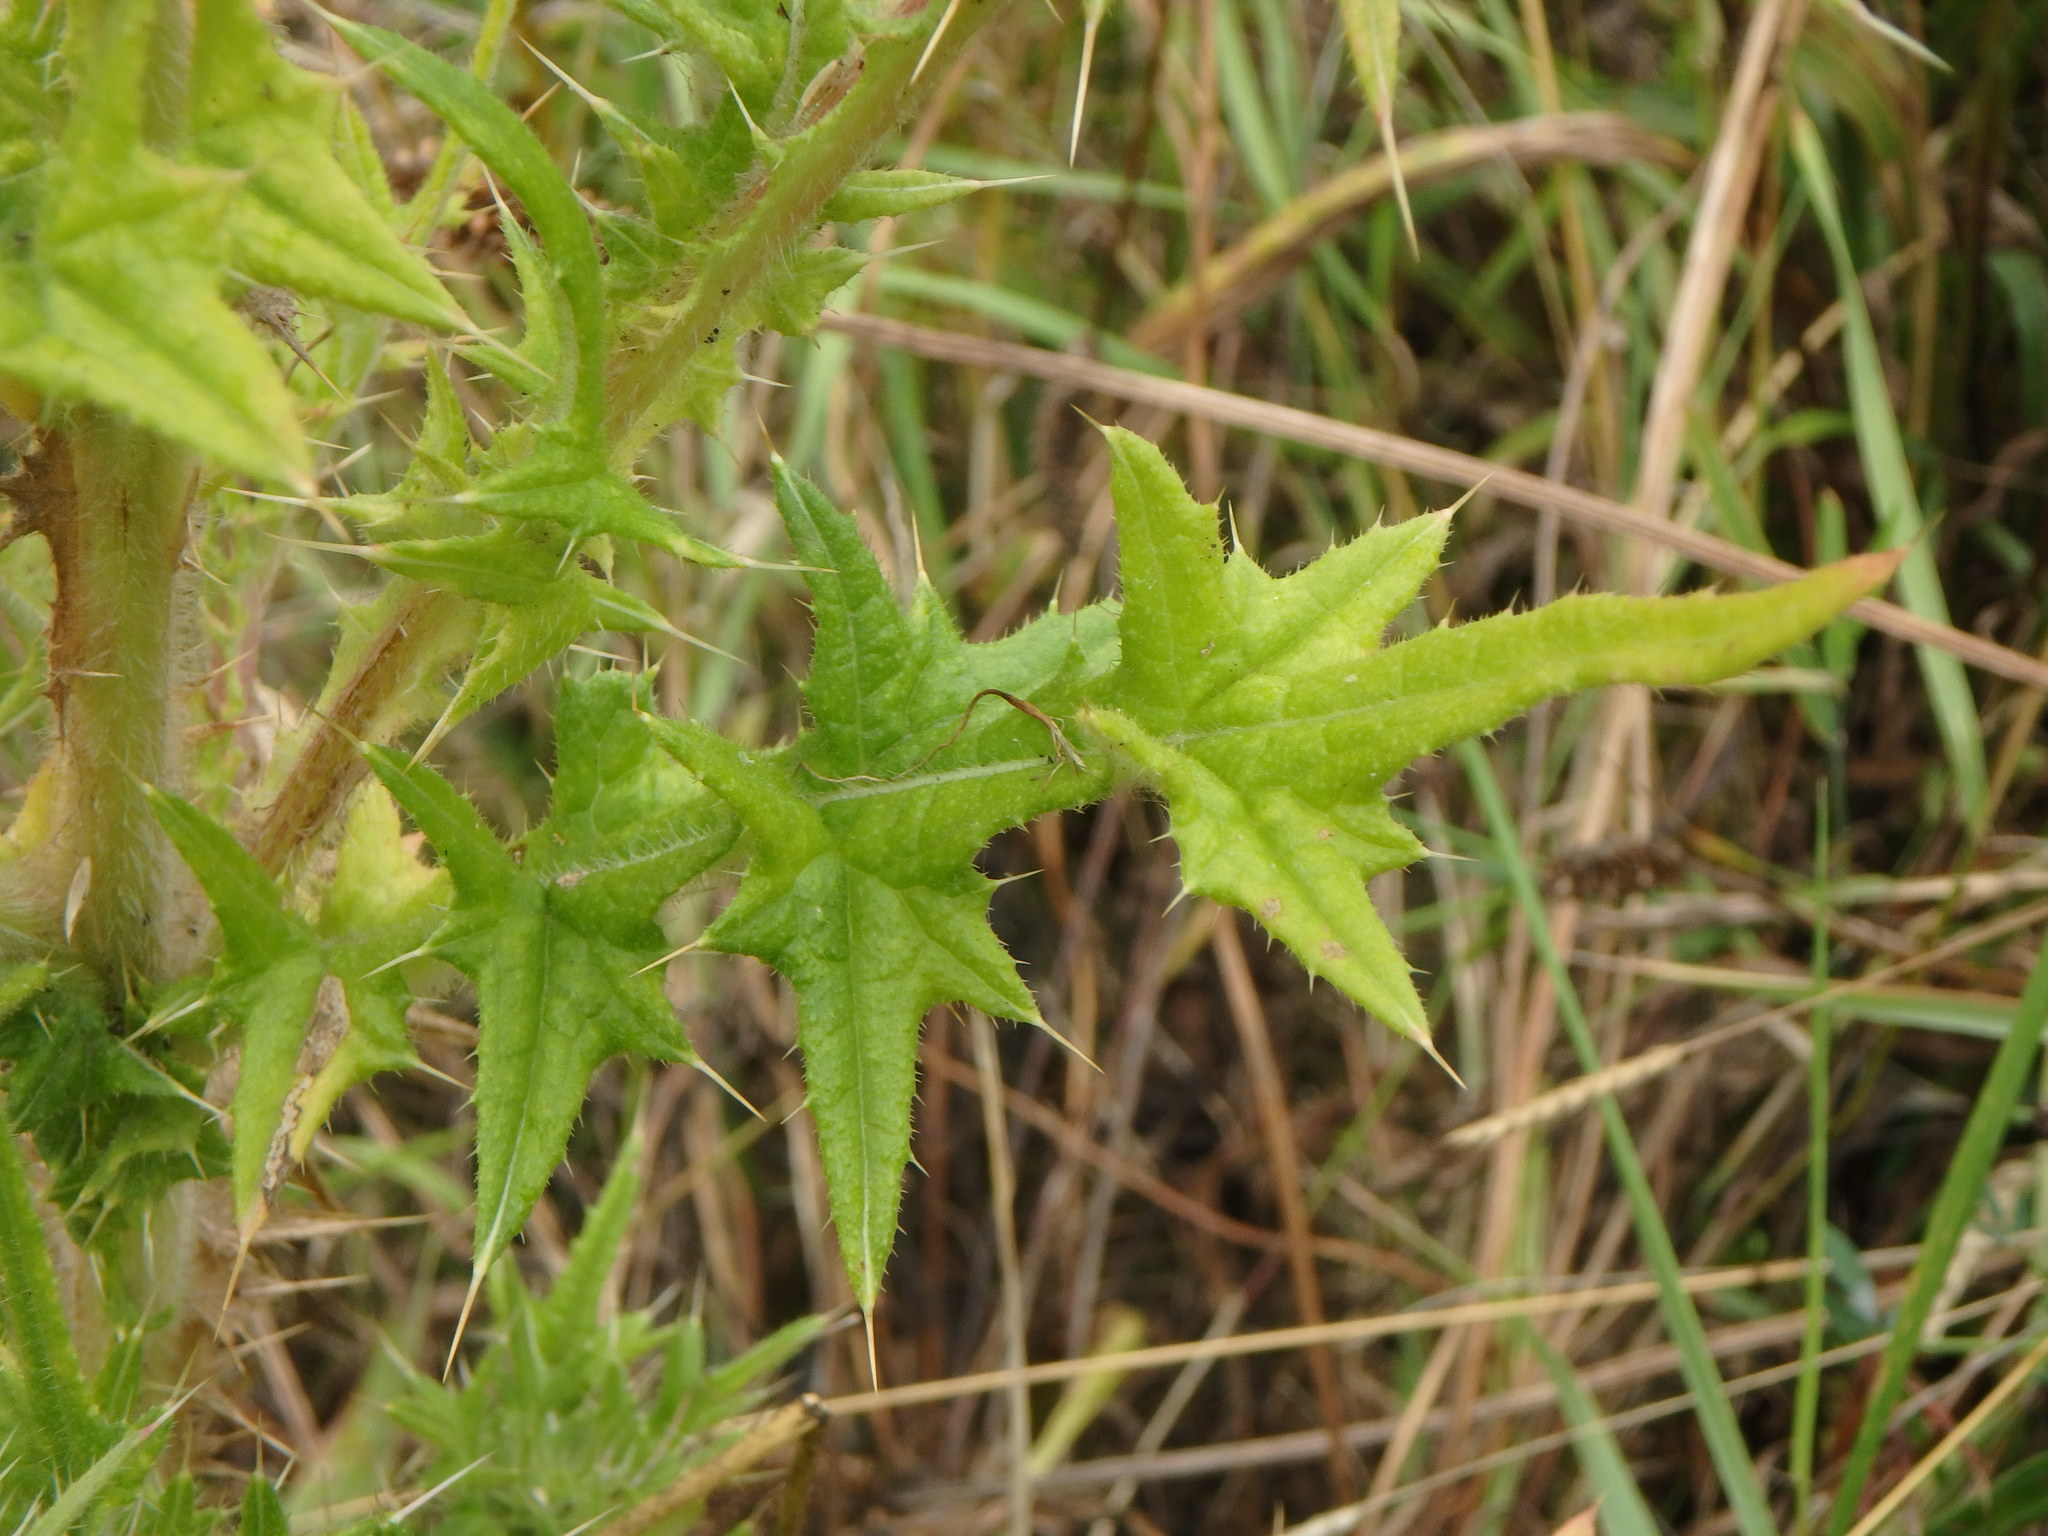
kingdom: Plantae
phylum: Tracheophyta
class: Magnoliopsida
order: Asterales
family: Asteraceae
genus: Cirsium
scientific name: Cirsium vulgare
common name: Bull thistle
